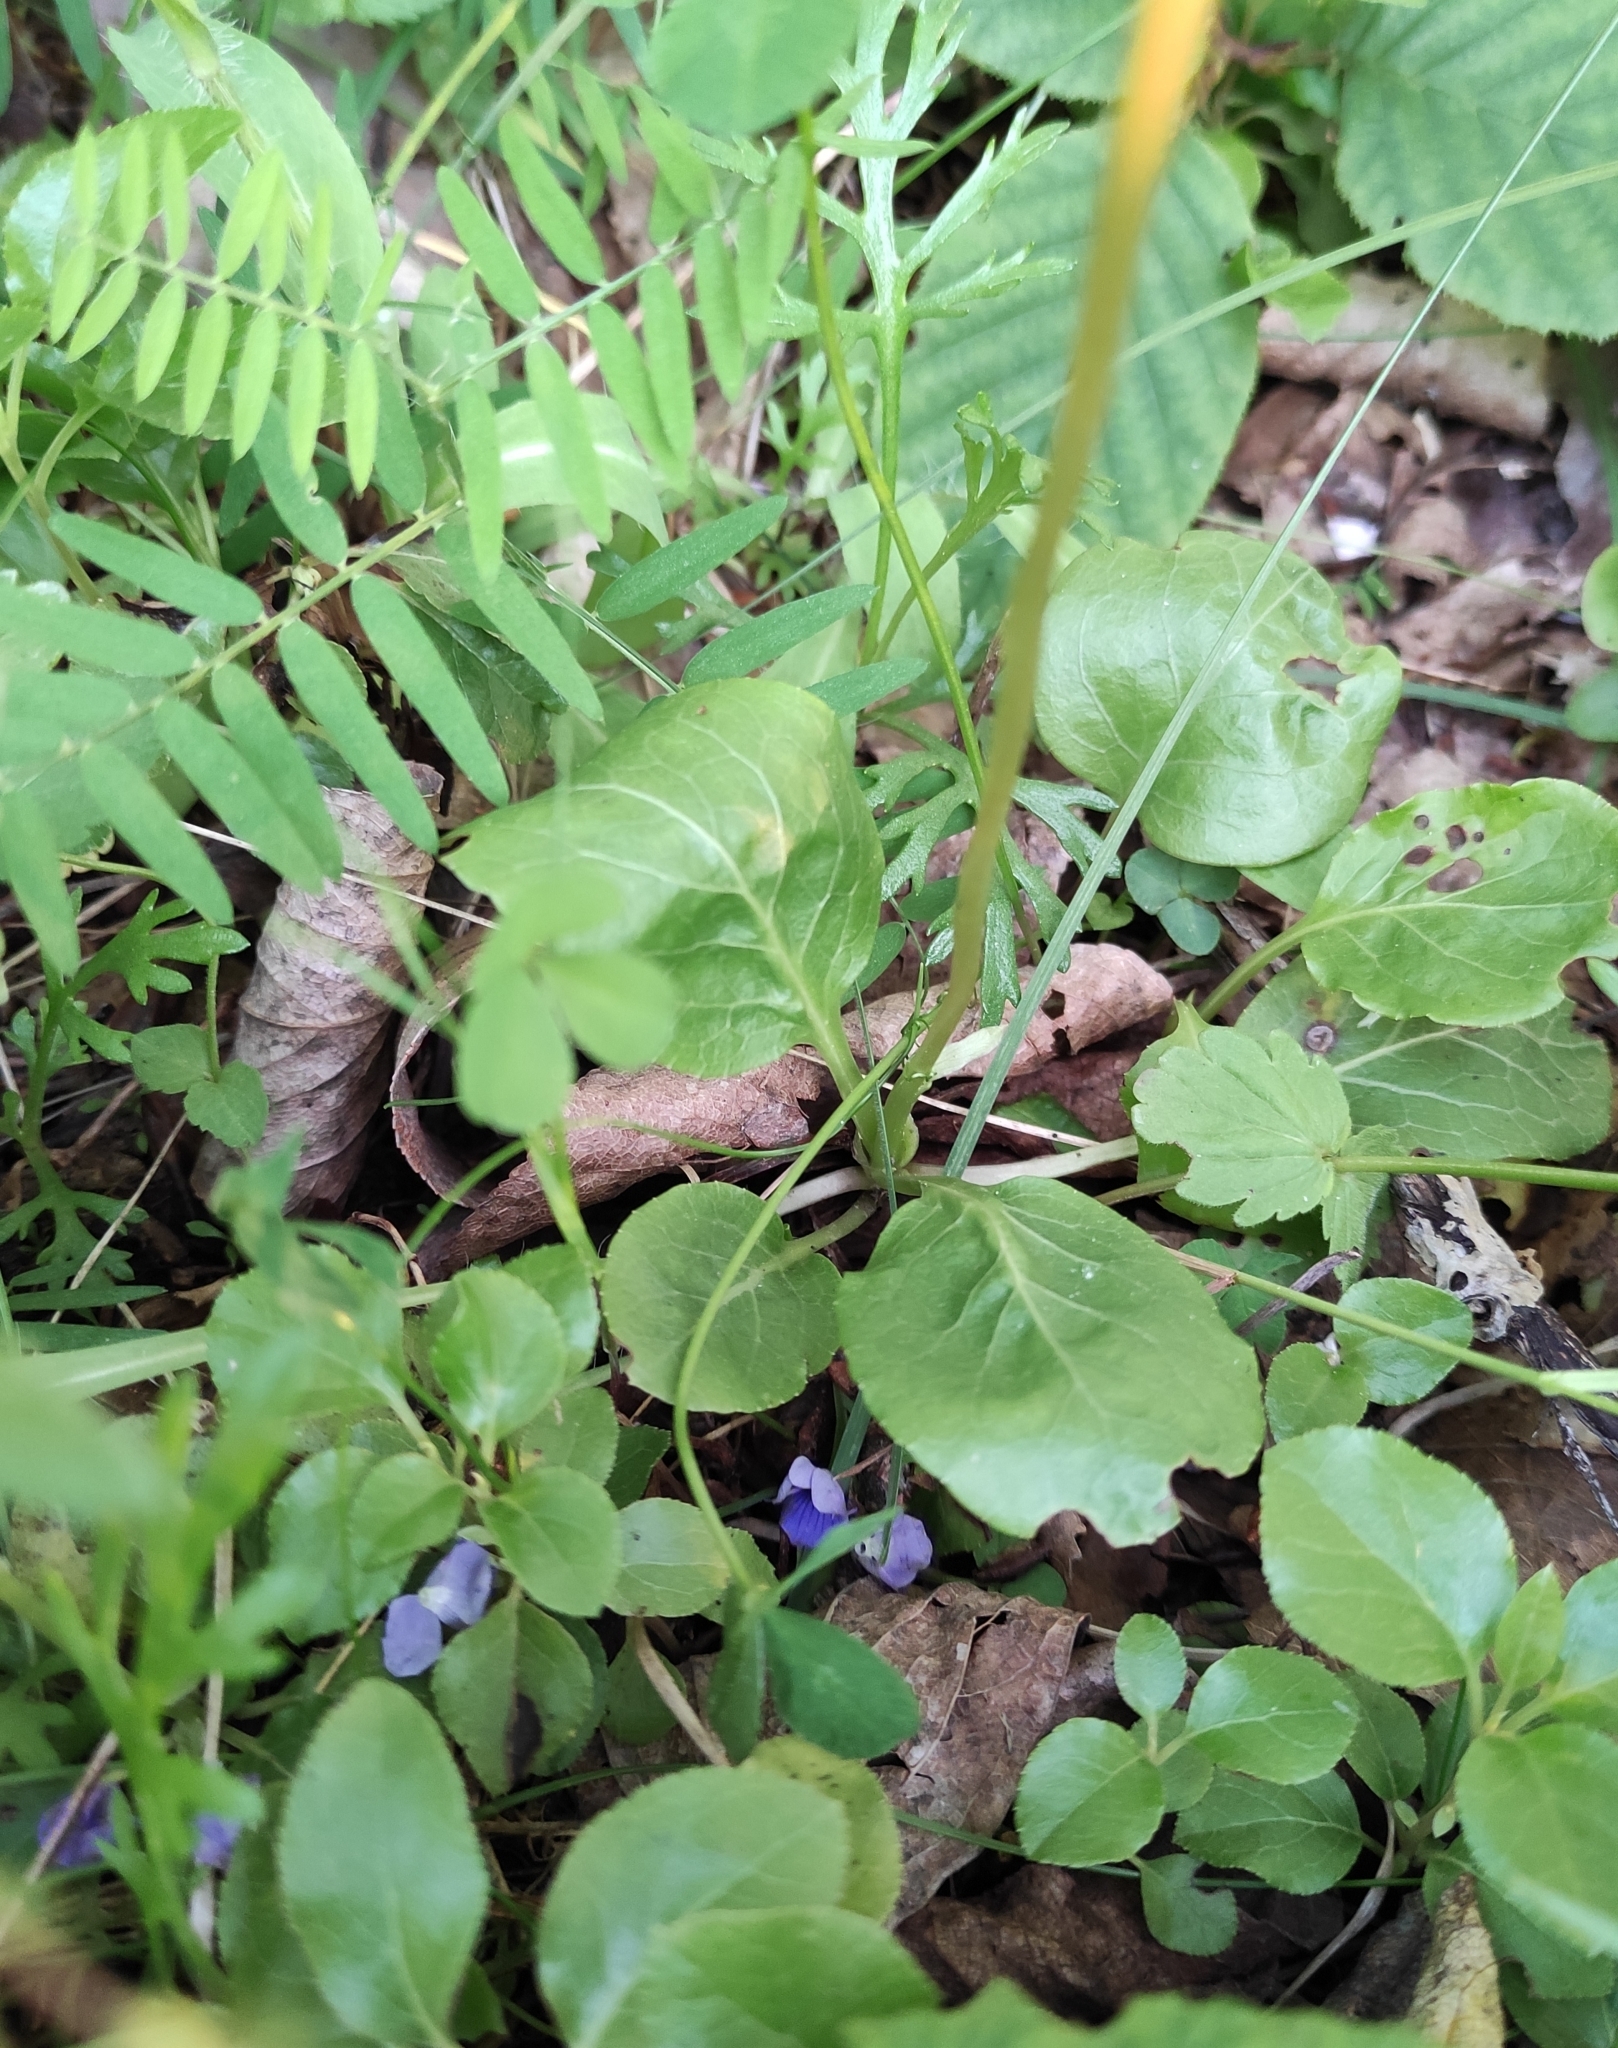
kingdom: Plantae
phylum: Tracheophyta
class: Magnoliopsida
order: Ericales
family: Ericaceae
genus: Pyrola
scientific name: Pyrola rotundifolia
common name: Round-leaved wintergreen
